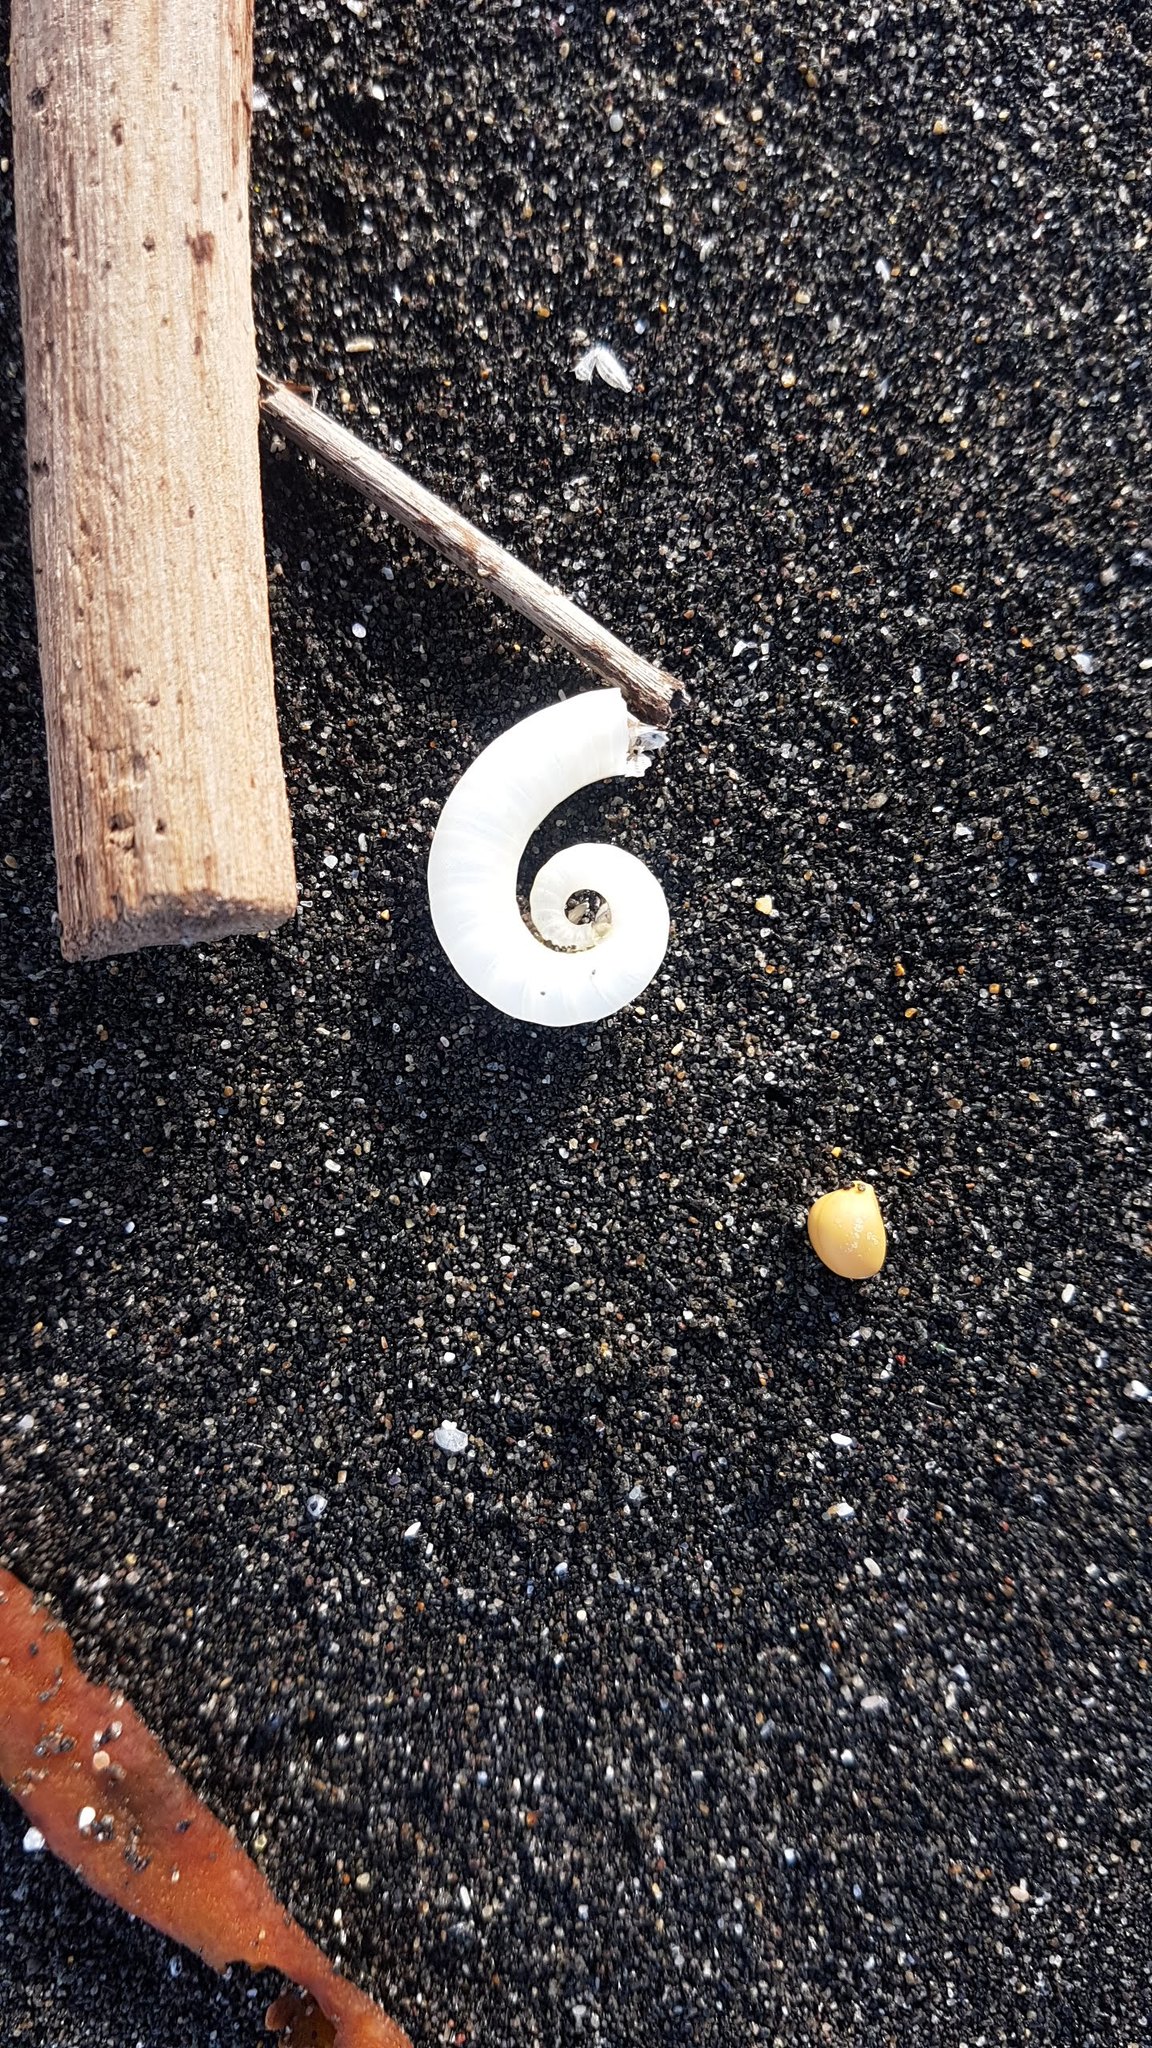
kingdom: Animalia
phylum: Mollusca
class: Cephalopoda
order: Spirulida
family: Spirulidae
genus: Spirula
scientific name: Spirula spirula
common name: Ram's horn squid
